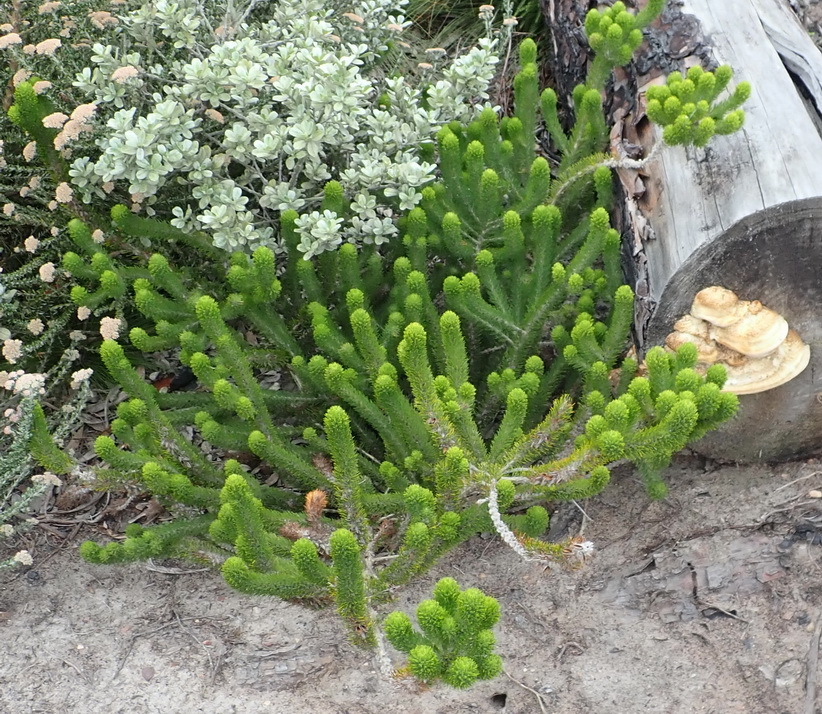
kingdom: Plantae
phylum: Tracheophyta
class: Magnoliopsida
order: Fabales
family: Fabaceae
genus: Aspalathus
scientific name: Aspalathus alopecurus
